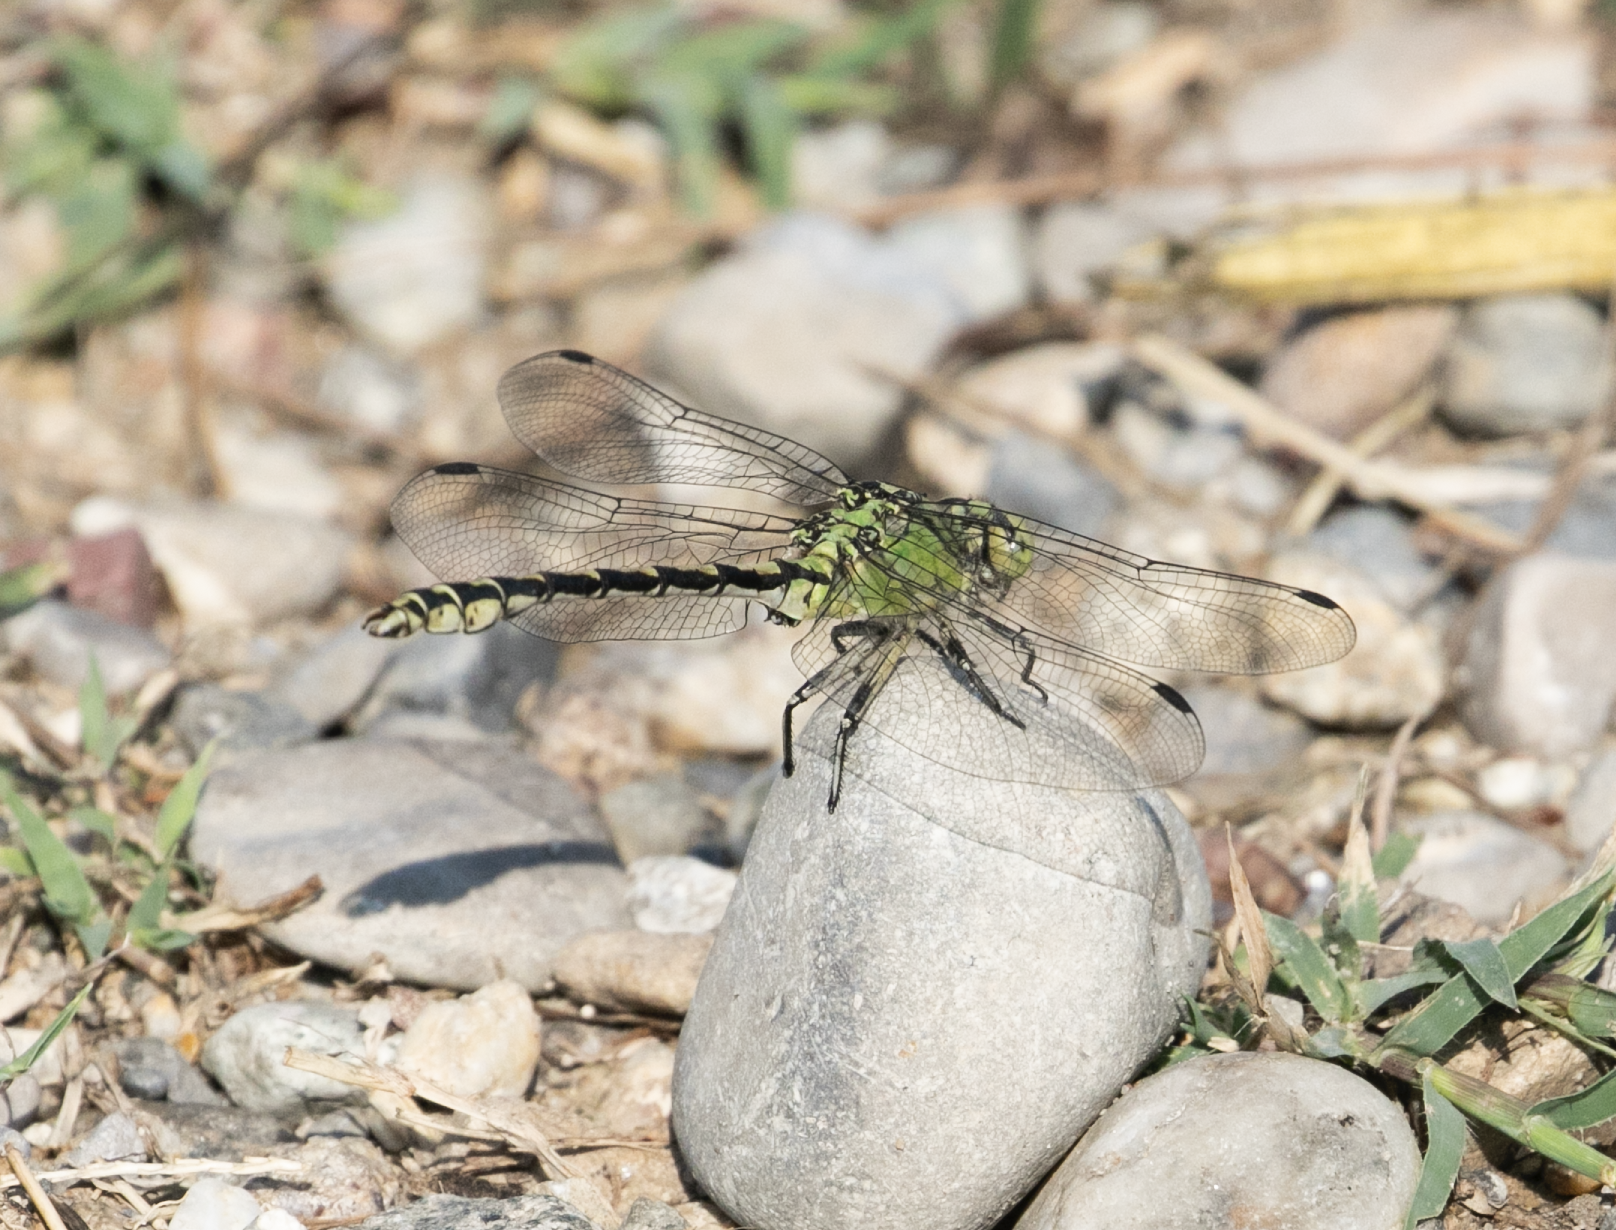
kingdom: Animalia
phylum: Arthropoda
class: Insecta
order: Odonata
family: Gomphidae
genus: Ophiogomphus
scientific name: Ophiogomphus cecilia
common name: Green snaketail
